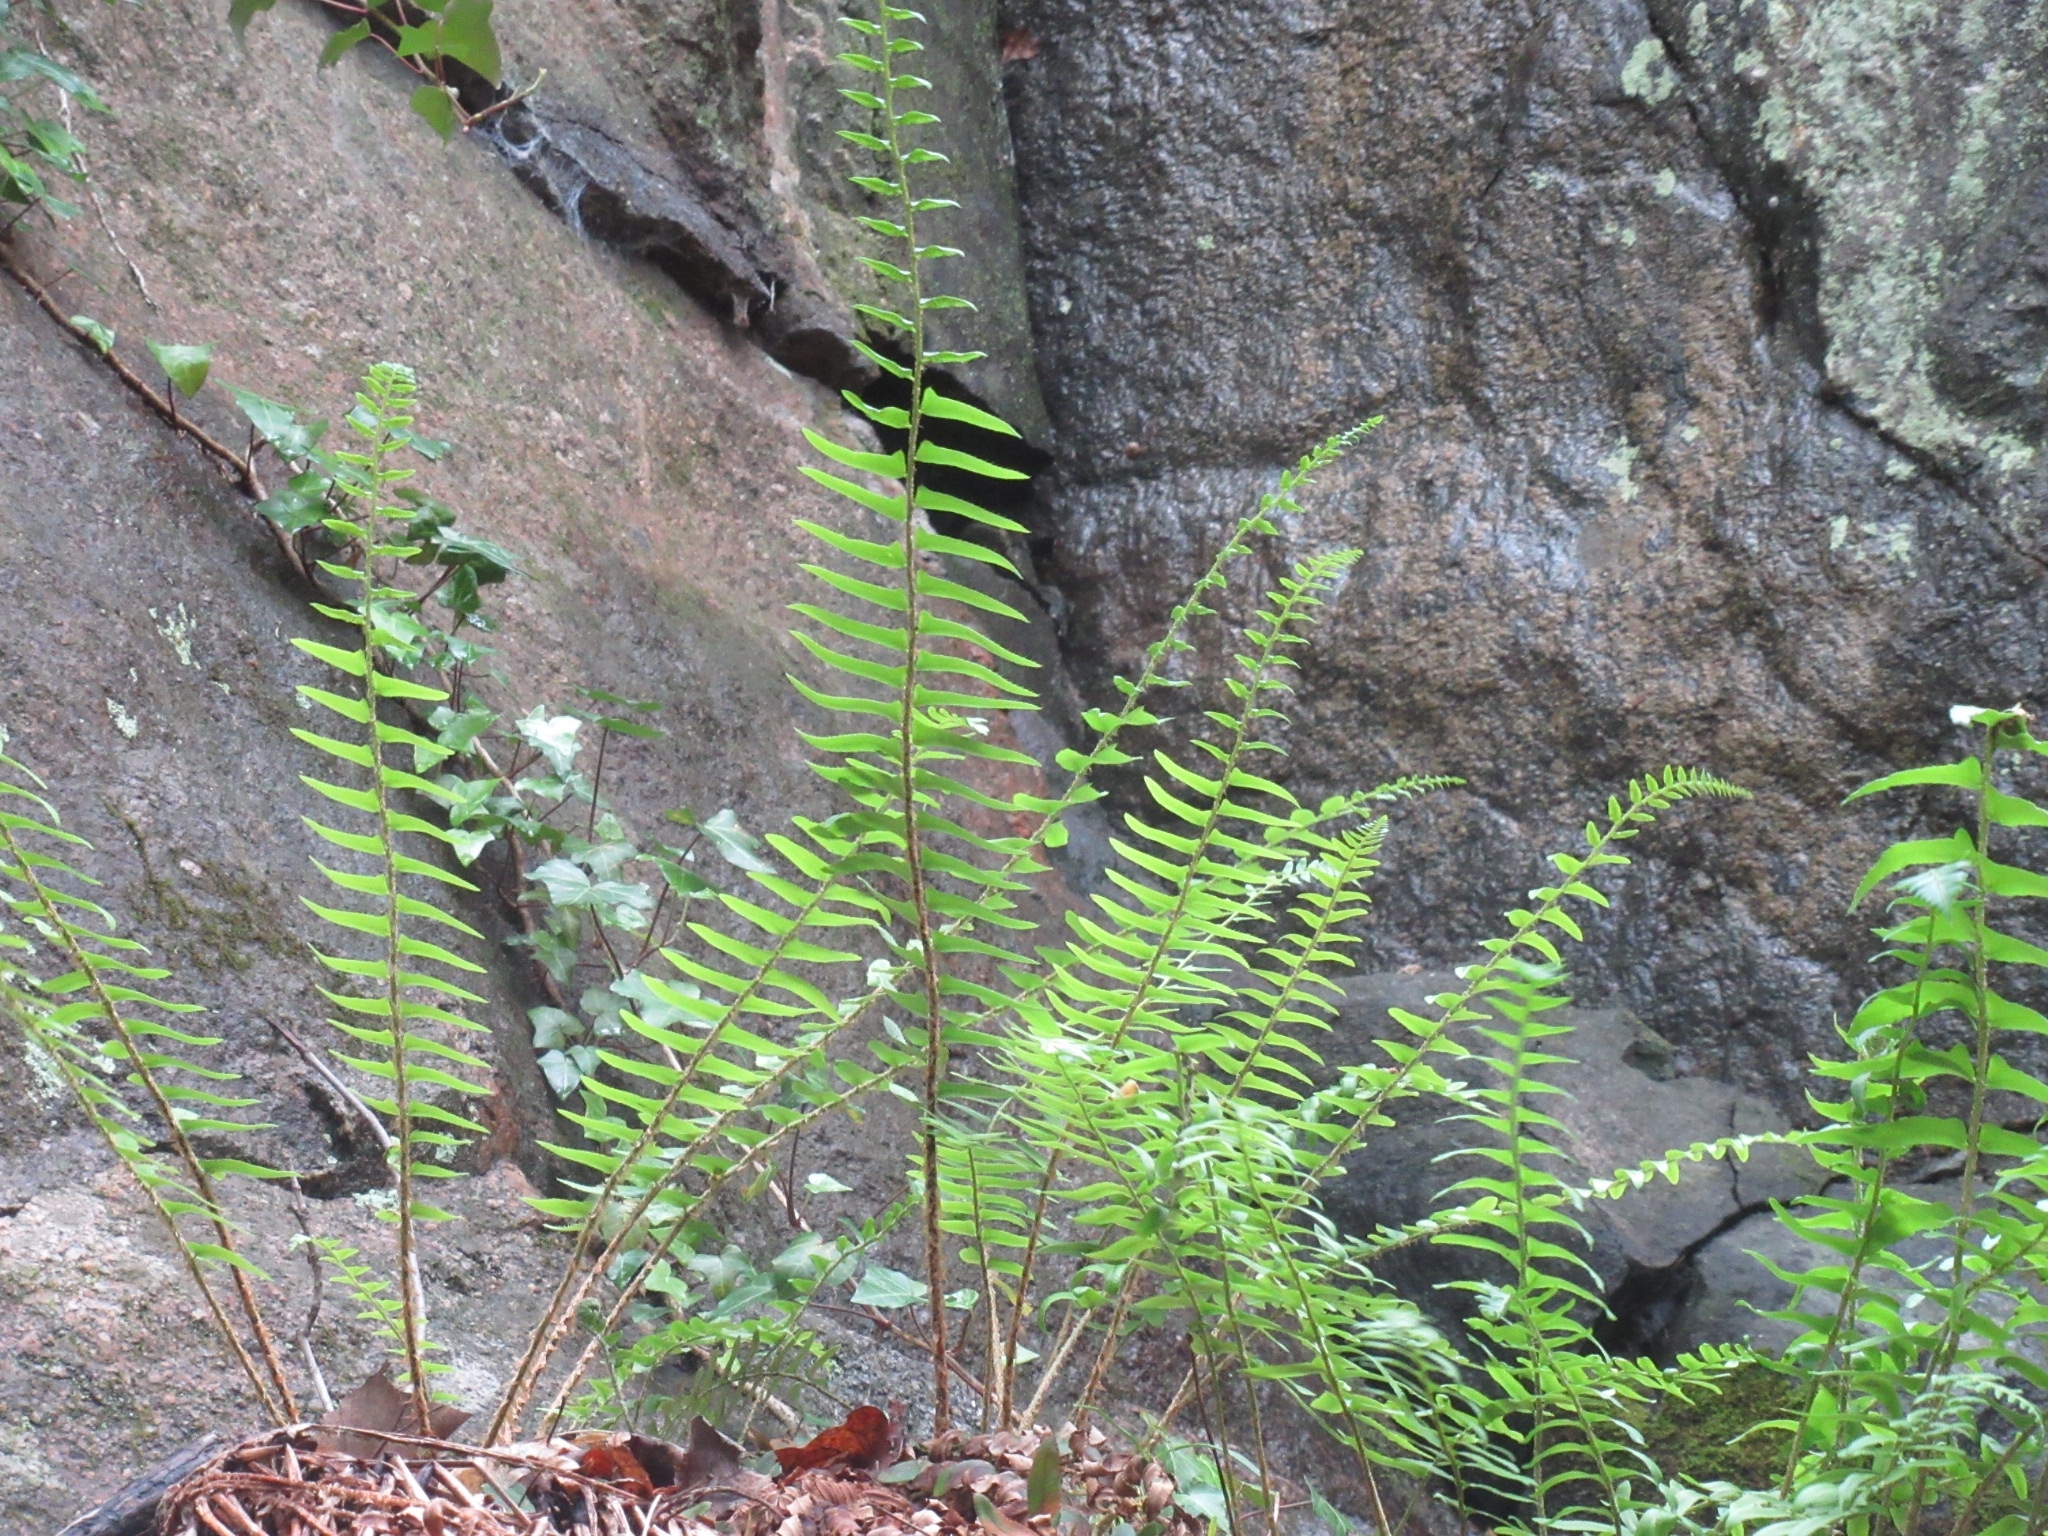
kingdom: Plantae
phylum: Tracheophyta
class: Polypodiopsida
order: Polypodiales
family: Dryopteridaceae
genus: Polystichum
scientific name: Polystichum acrostichoides
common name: Christmas fern
